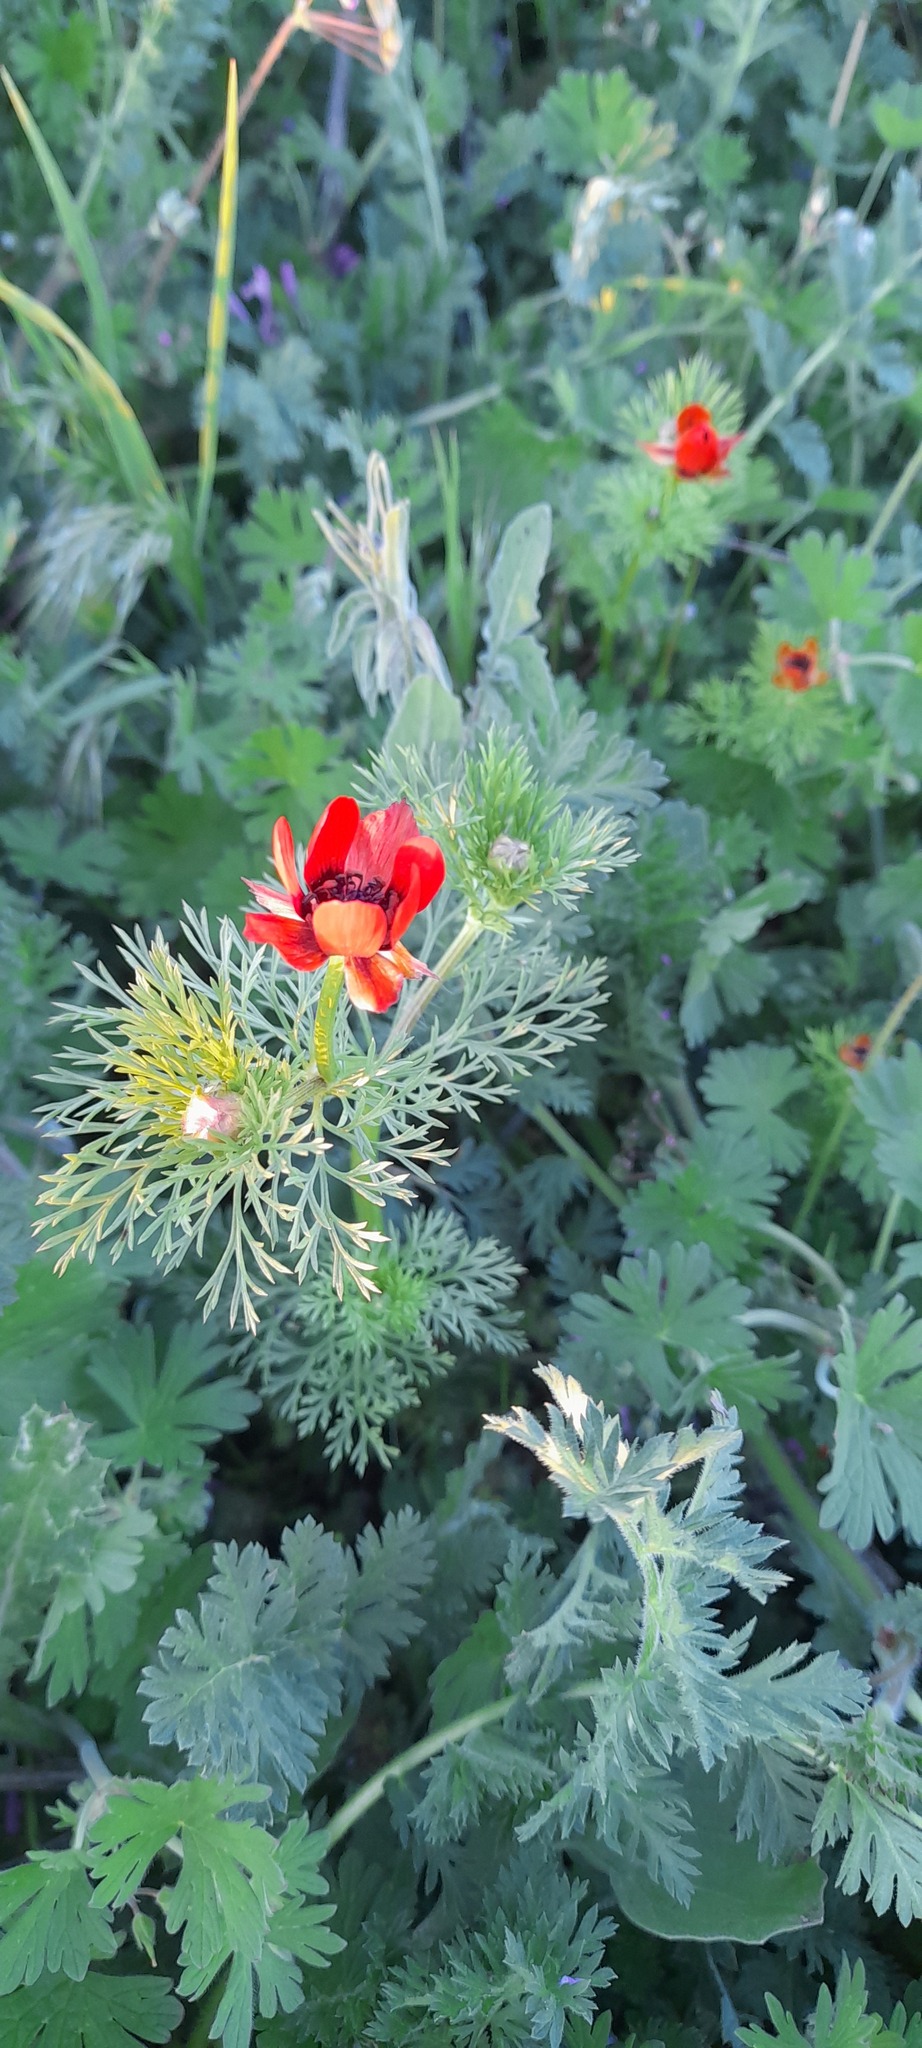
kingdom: Plantae
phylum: Tracheophyta
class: Magnoliopsida
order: Ranunculales
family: Ranunculaceae
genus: Adonis
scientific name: Adonis flammea
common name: Large pheasant's-eye
